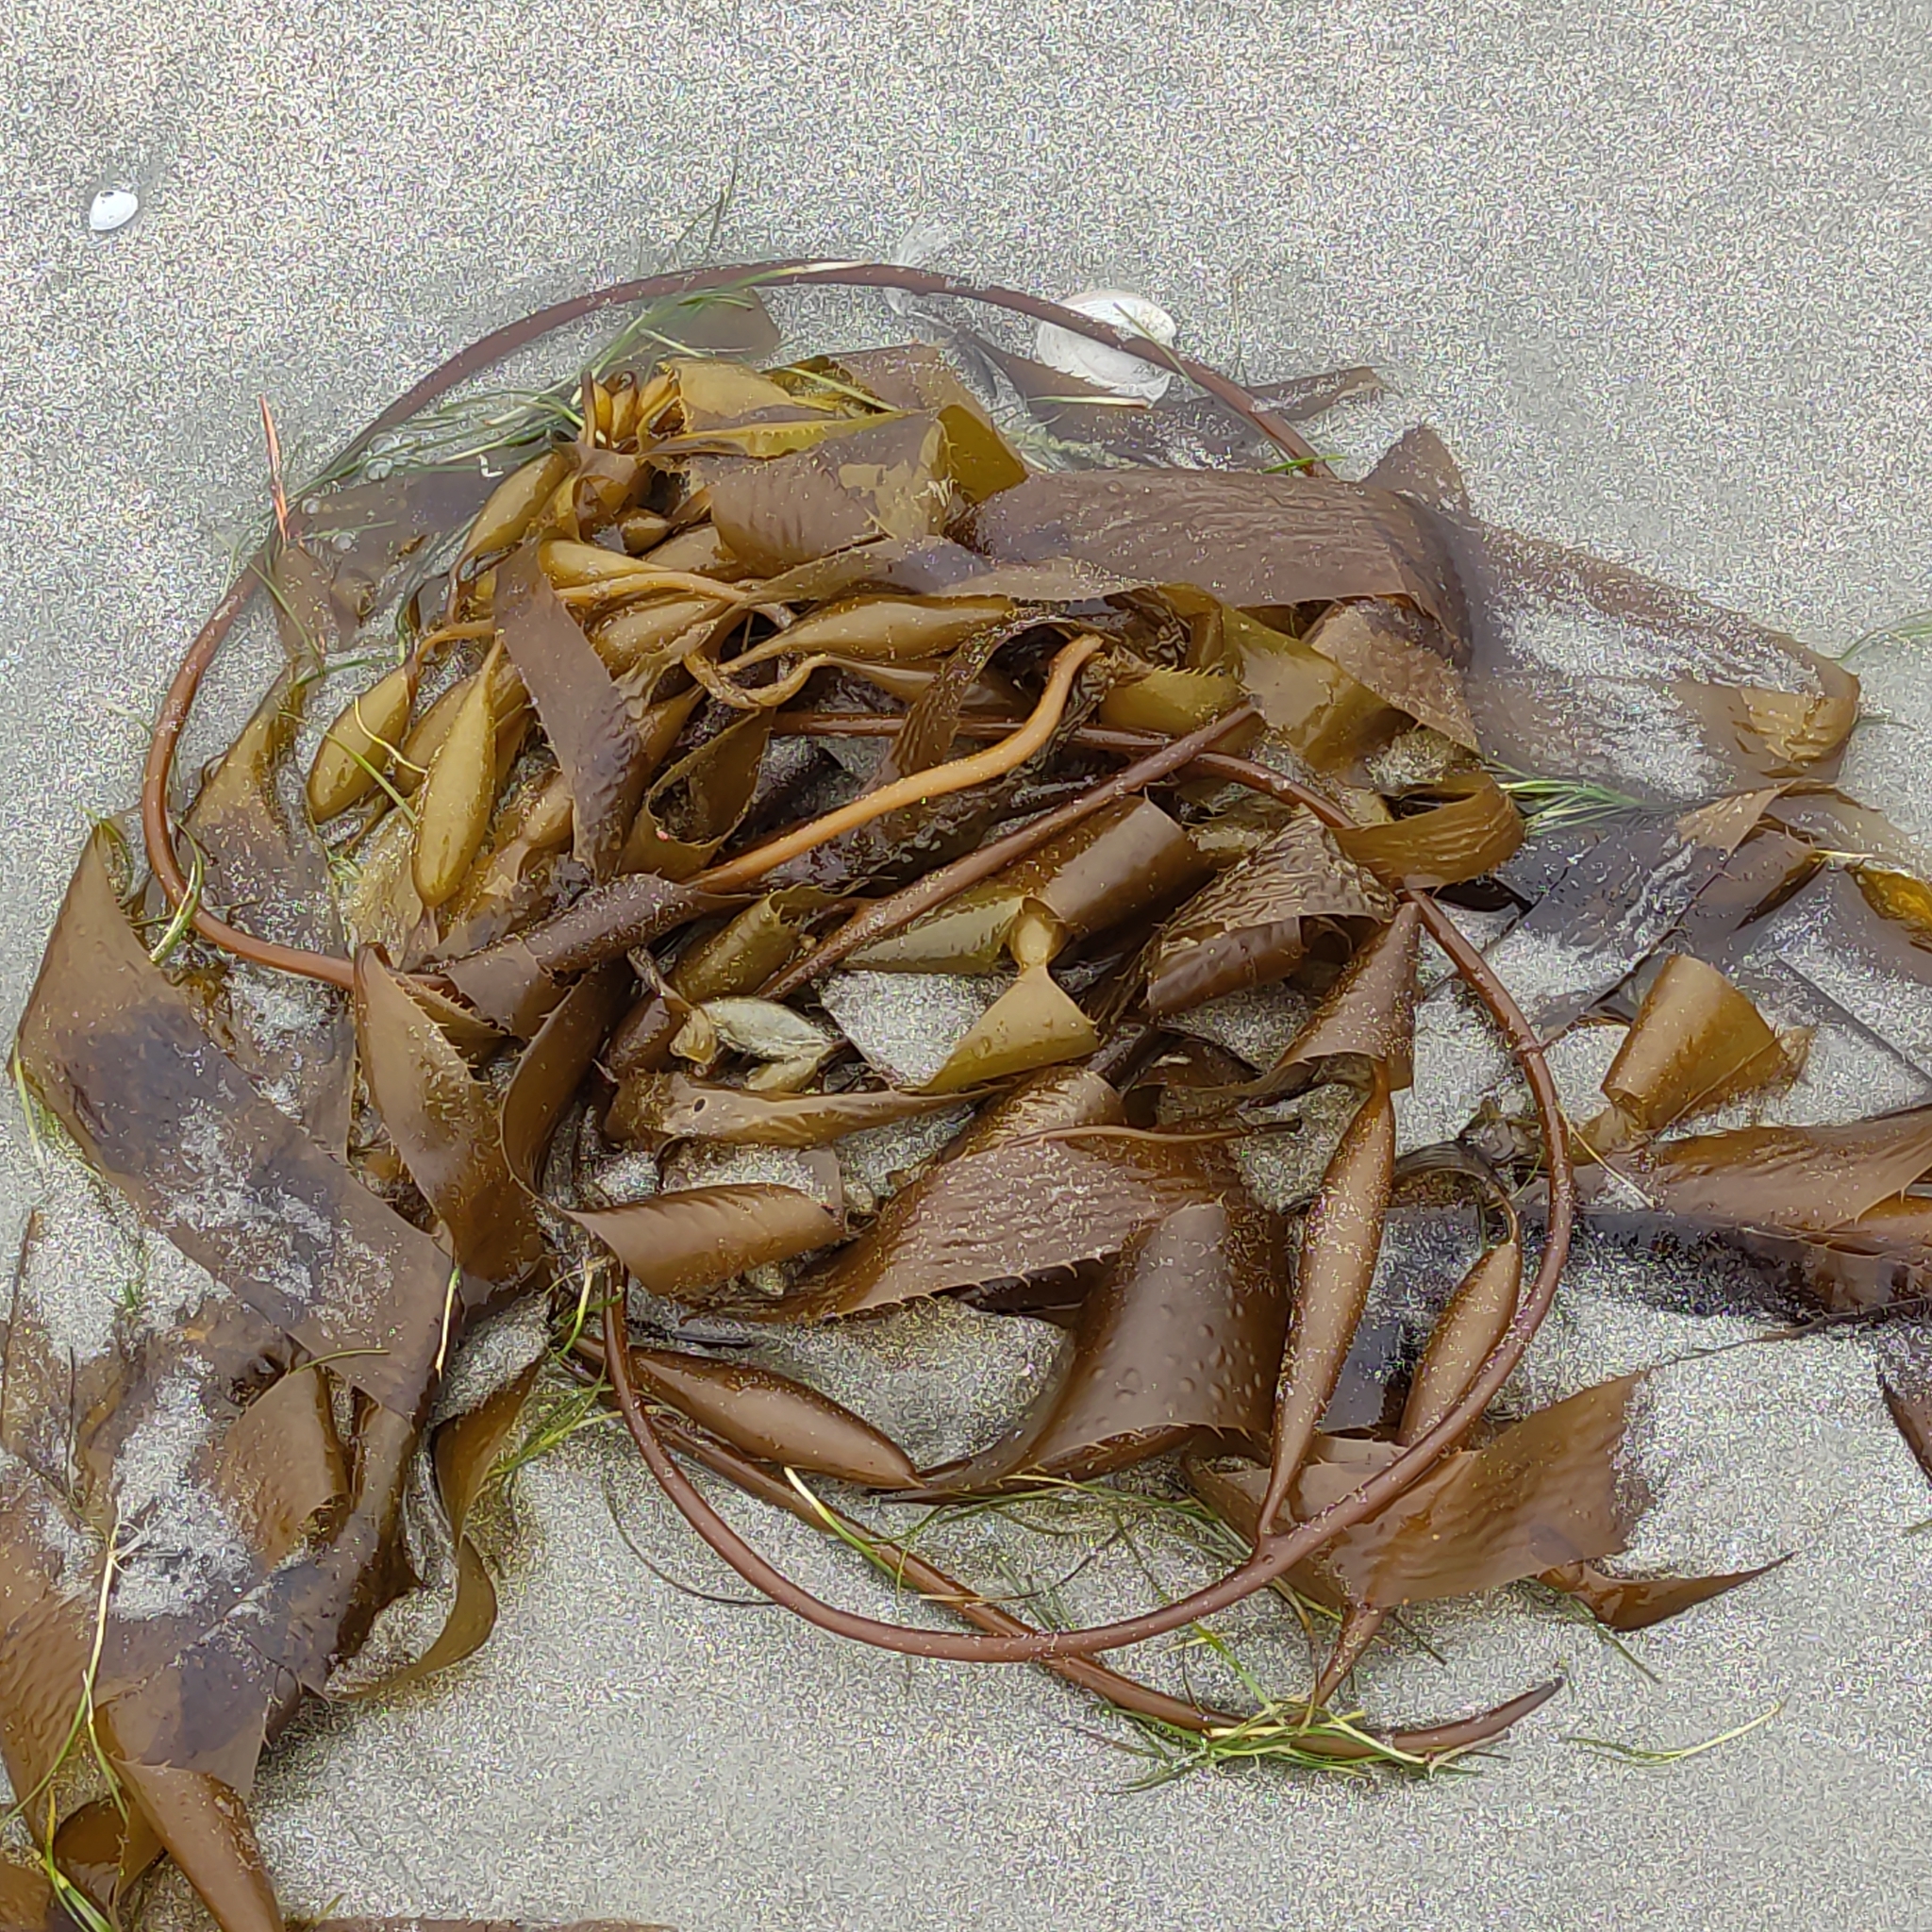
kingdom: Chromista
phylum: Ochrophyta
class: Phaeophyceae
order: Laminariales
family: Laminariaceae
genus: Macrocystis
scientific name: Macrocystis pyrifera
